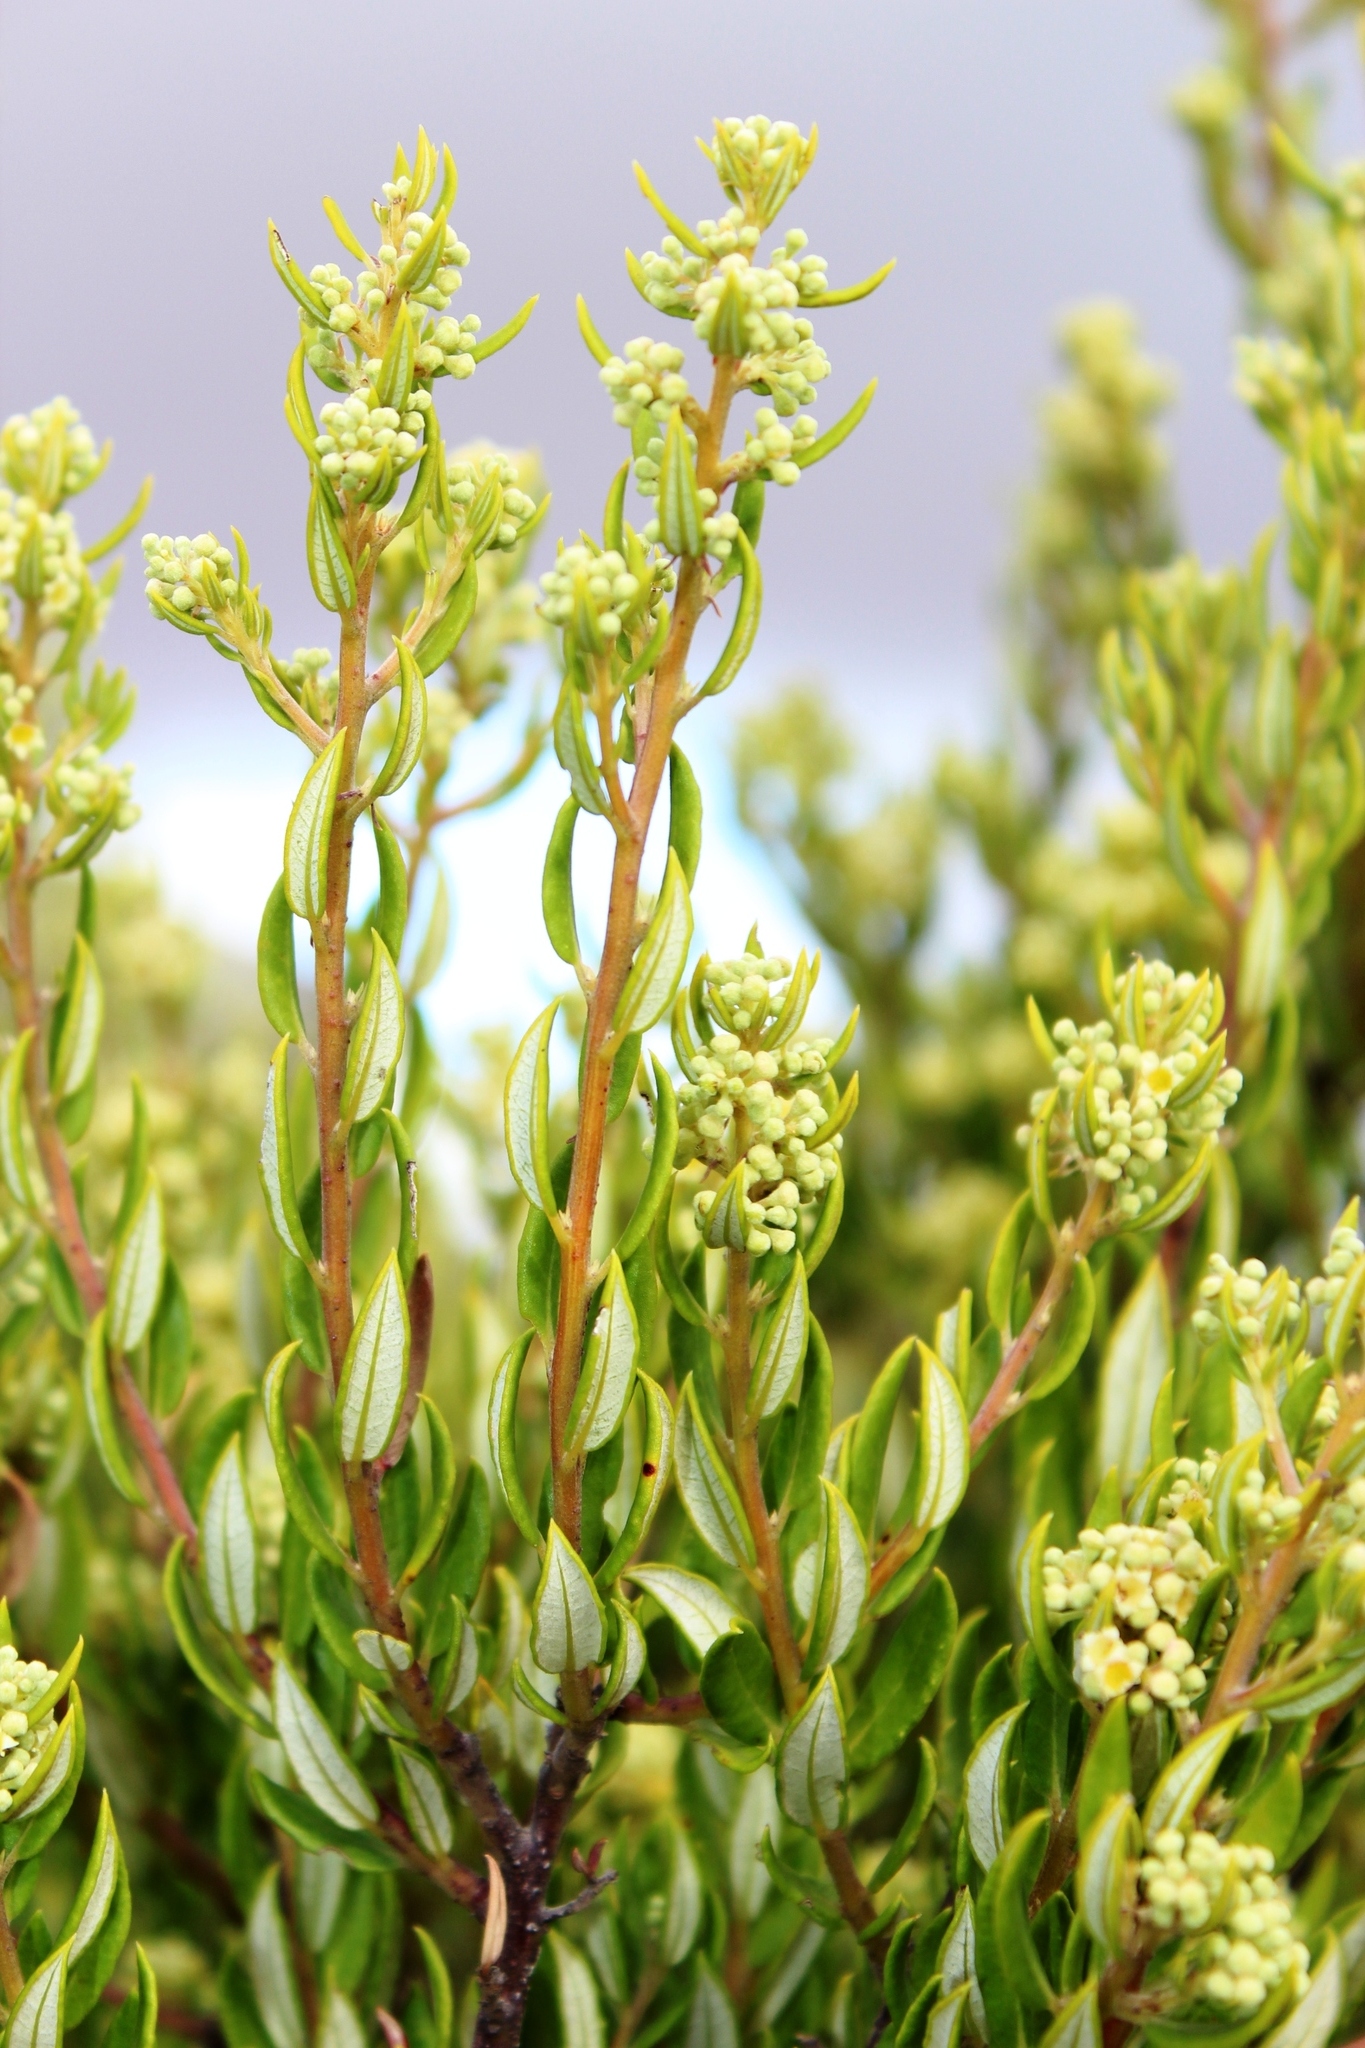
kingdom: Plantae
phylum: Tracheophyta
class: Magnoliopsida
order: Rosales
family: Rhamnaceae
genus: Phylica
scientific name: Phylica oleifolia
